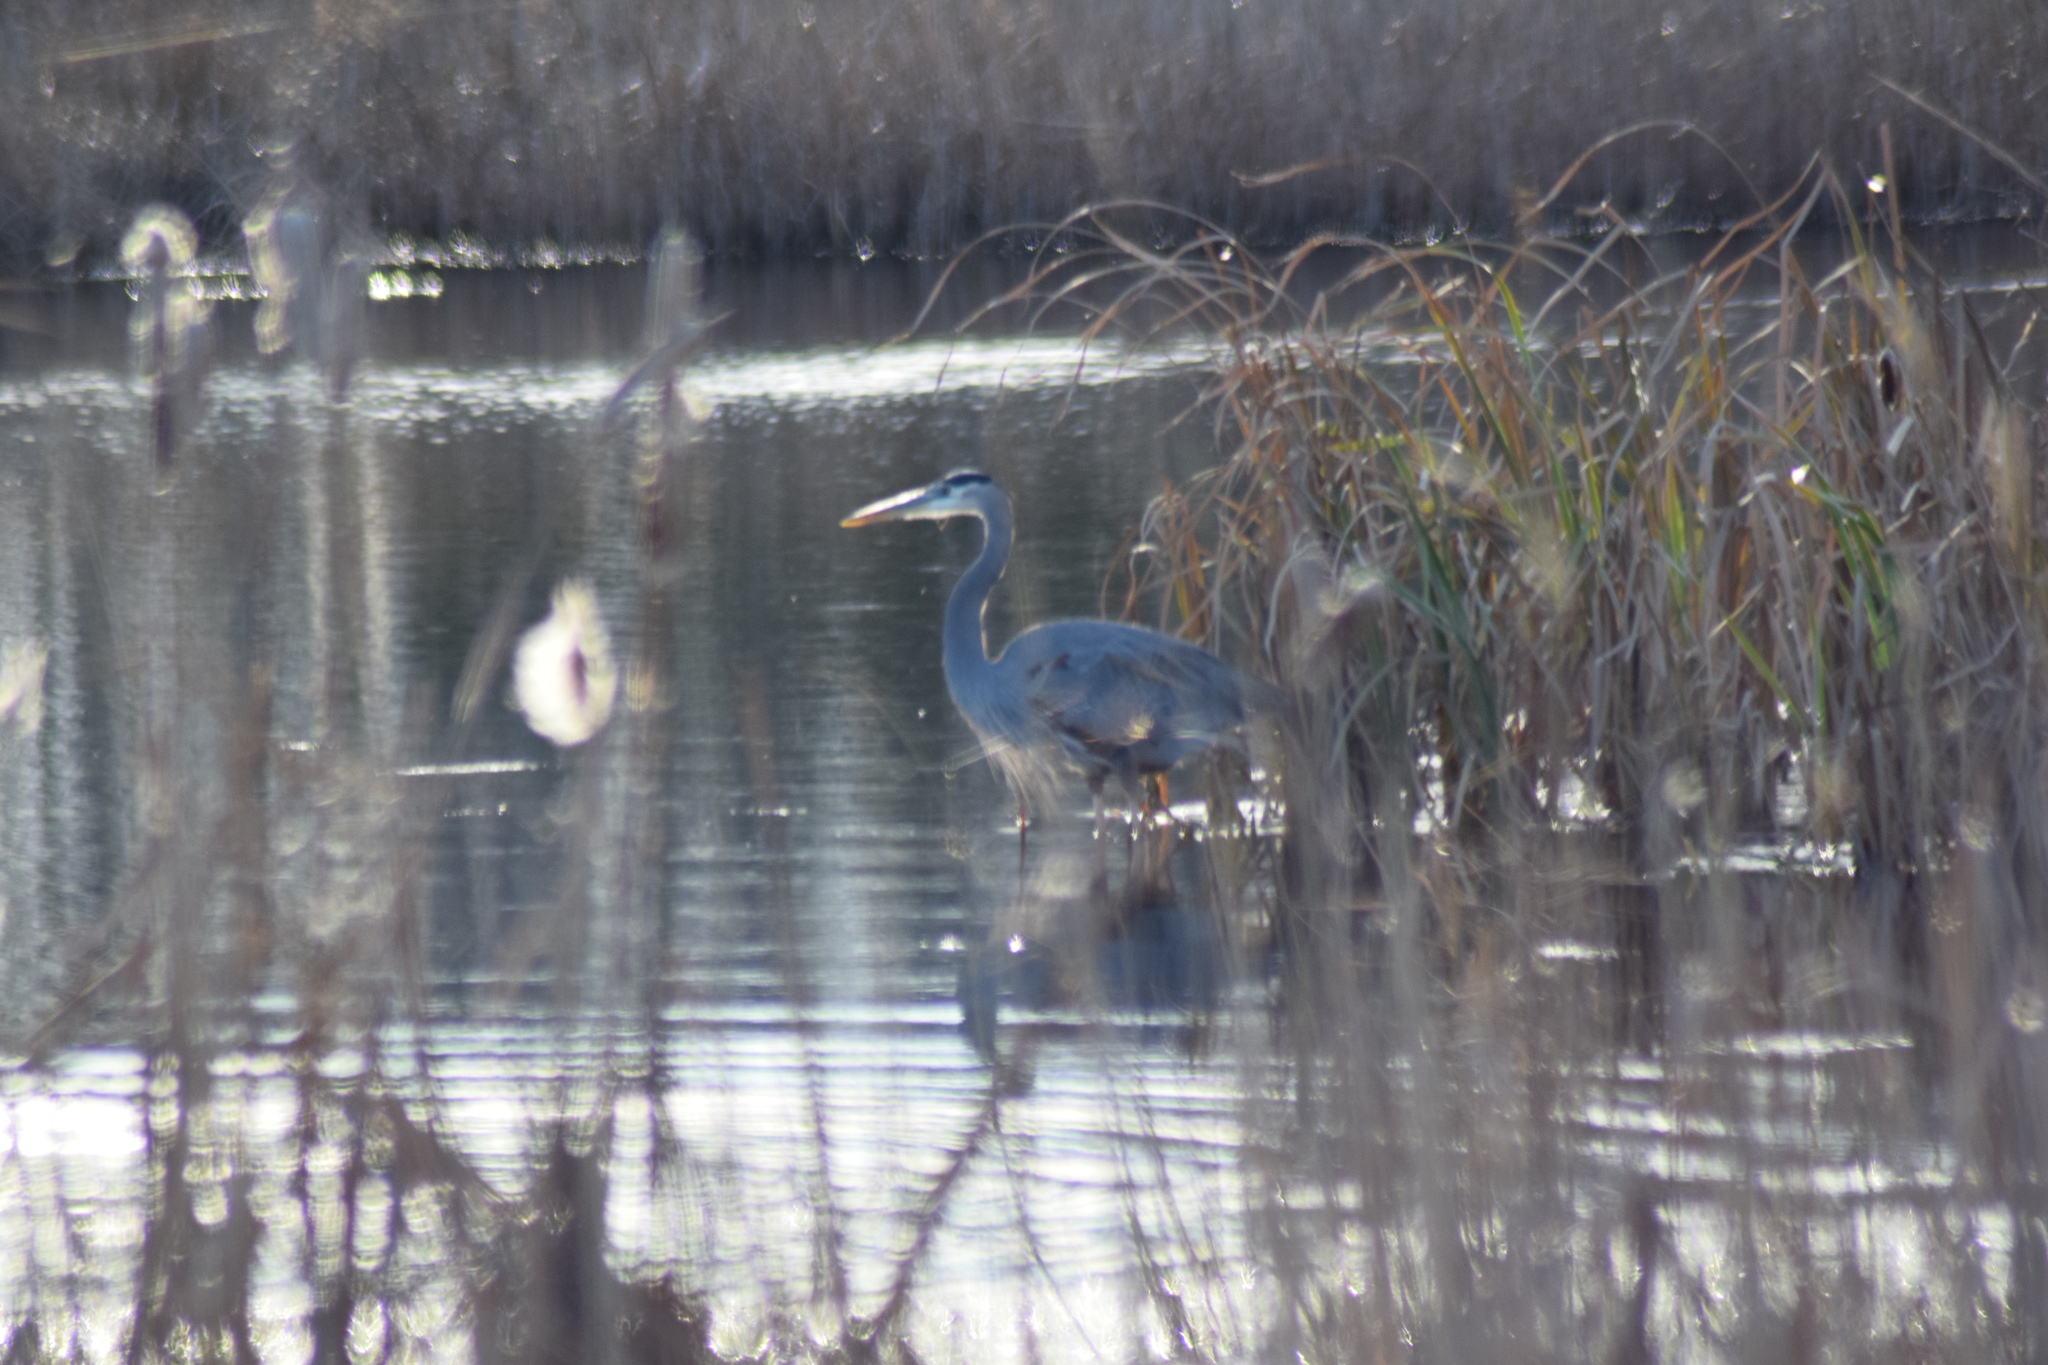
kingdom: Animalia
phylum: Chordata
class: Aves
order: Pelecaniformes
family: Ardeidae
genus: Ardea
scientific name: Ardea herodias
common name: Great blue heron
